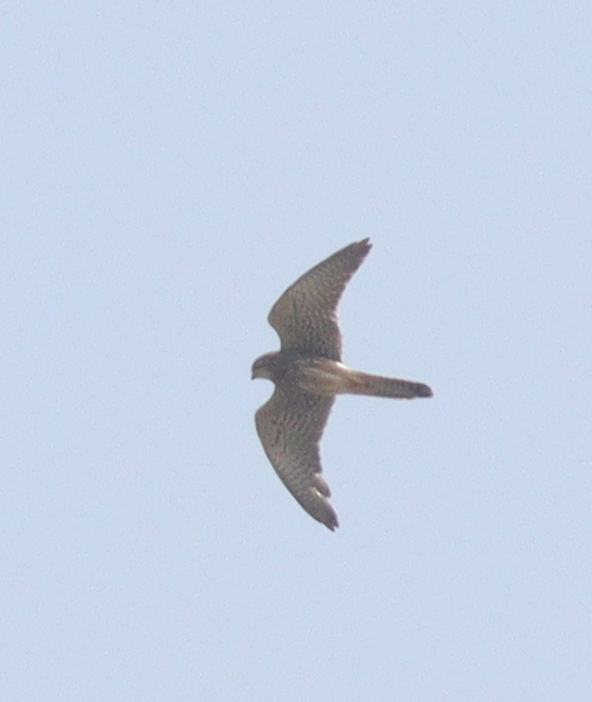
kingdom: Animalia
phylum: Chordata
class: Aves
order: Falconiformes
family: Falconidae
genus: Falco
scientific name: Falco tinnunculus
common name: Common kestrel
